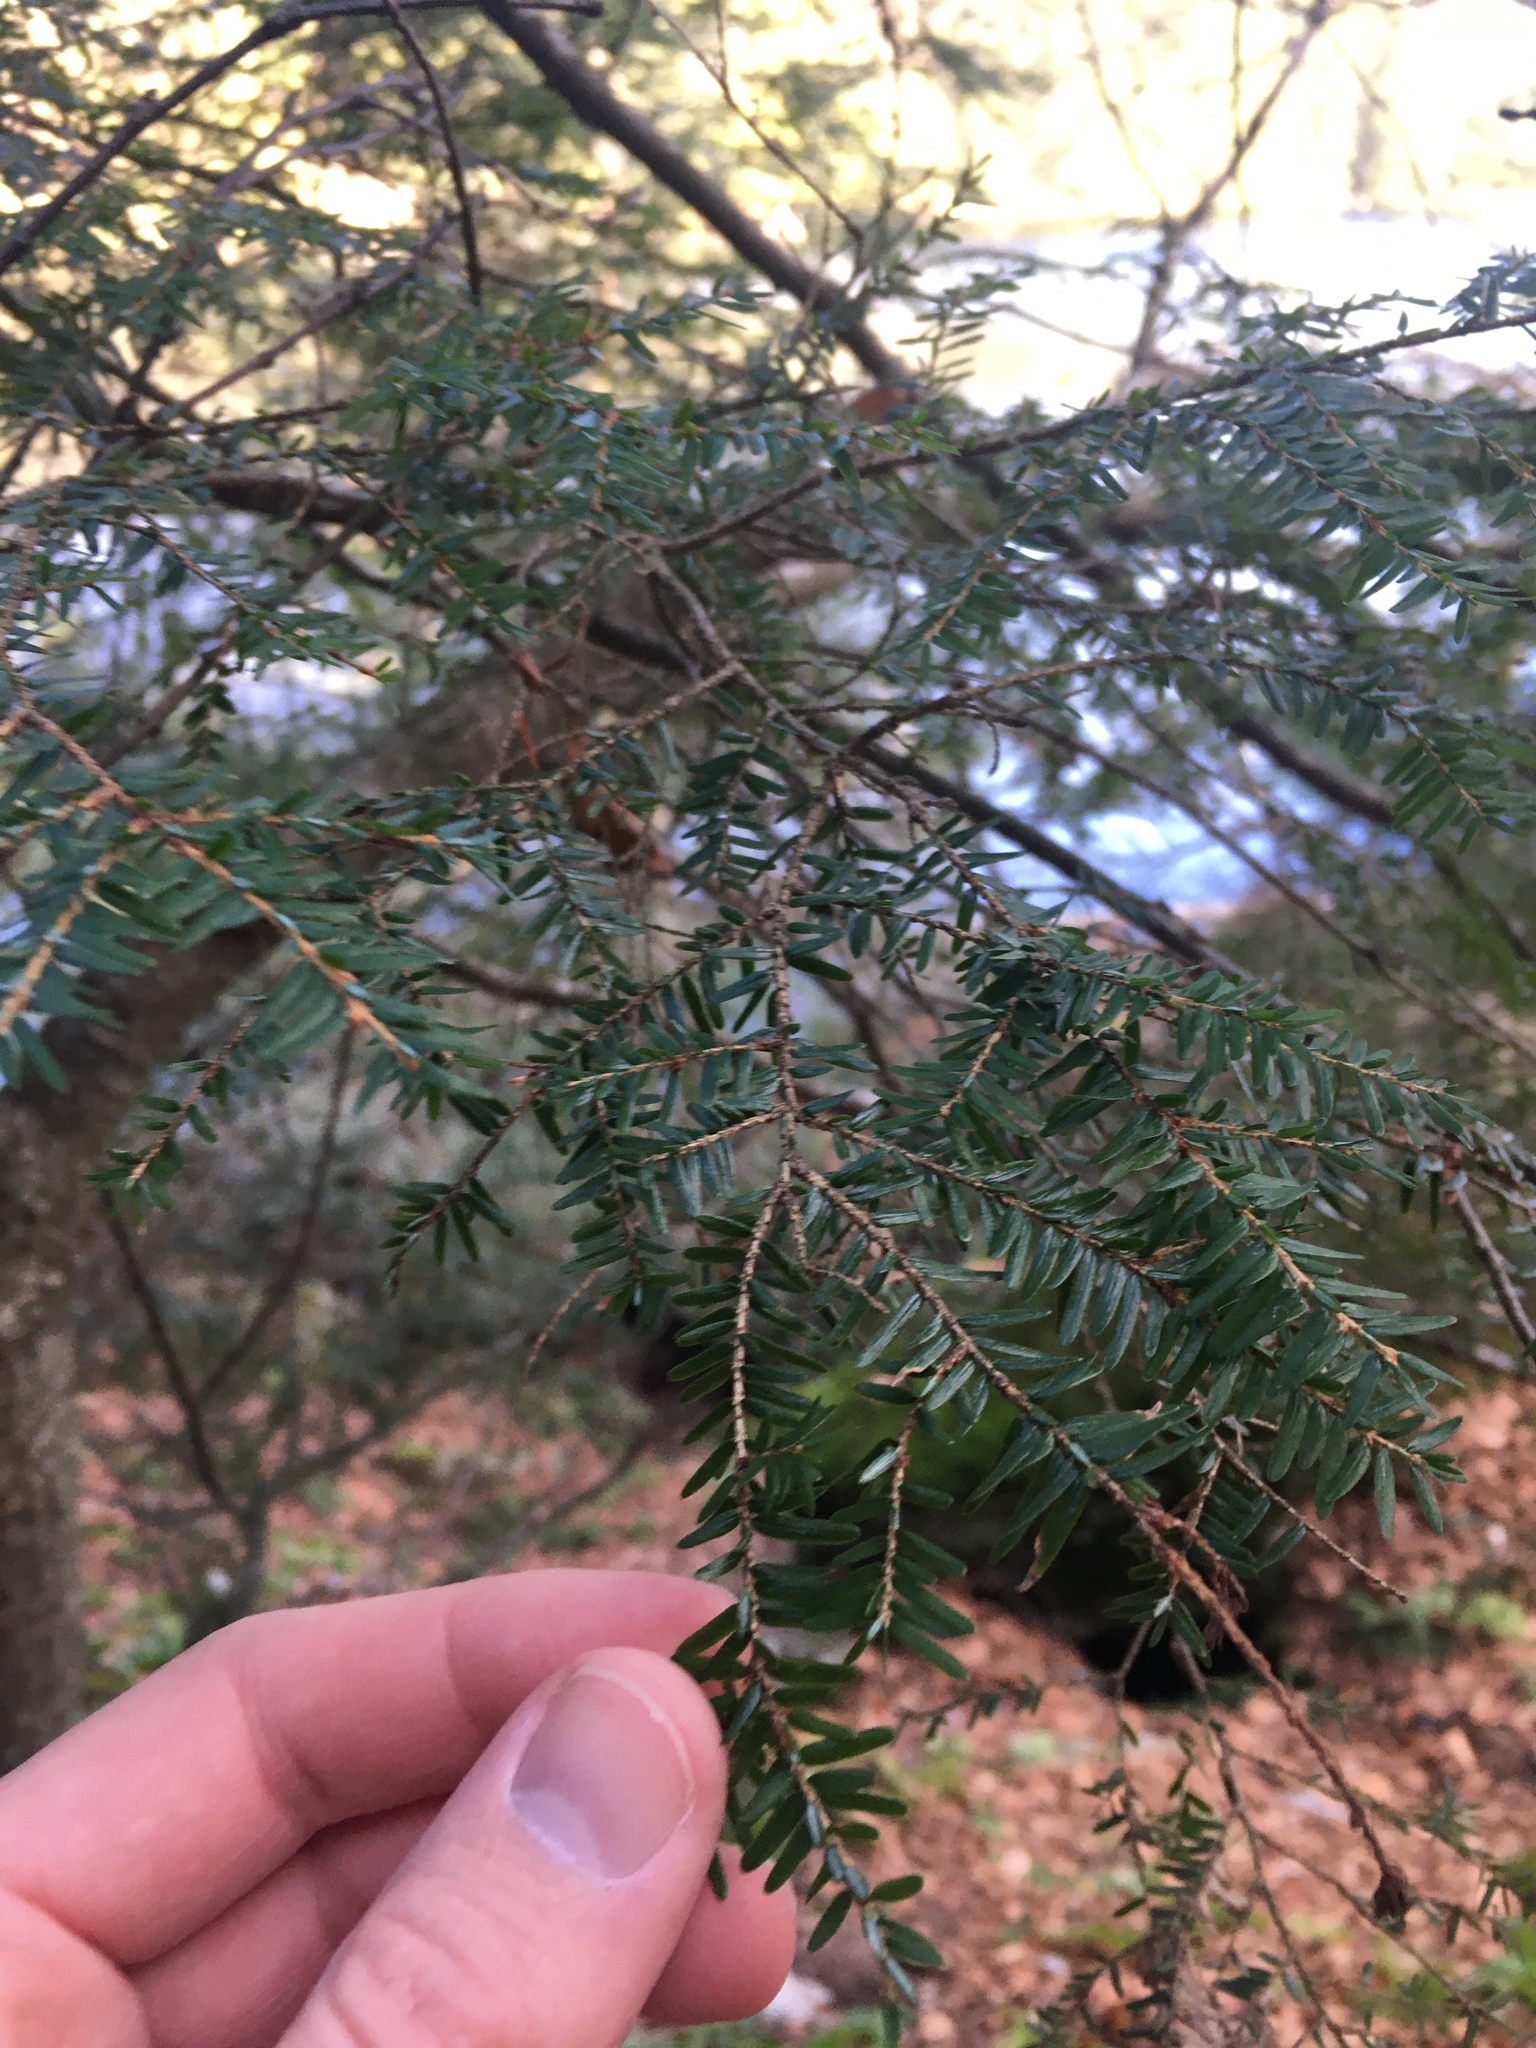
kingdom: Plantae
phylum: Tracheophyta
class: Pinopsida
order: Pinales
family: Pinaceae
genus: Tsuga
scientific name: Tsuga canadensis
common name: Eastern hemlock
